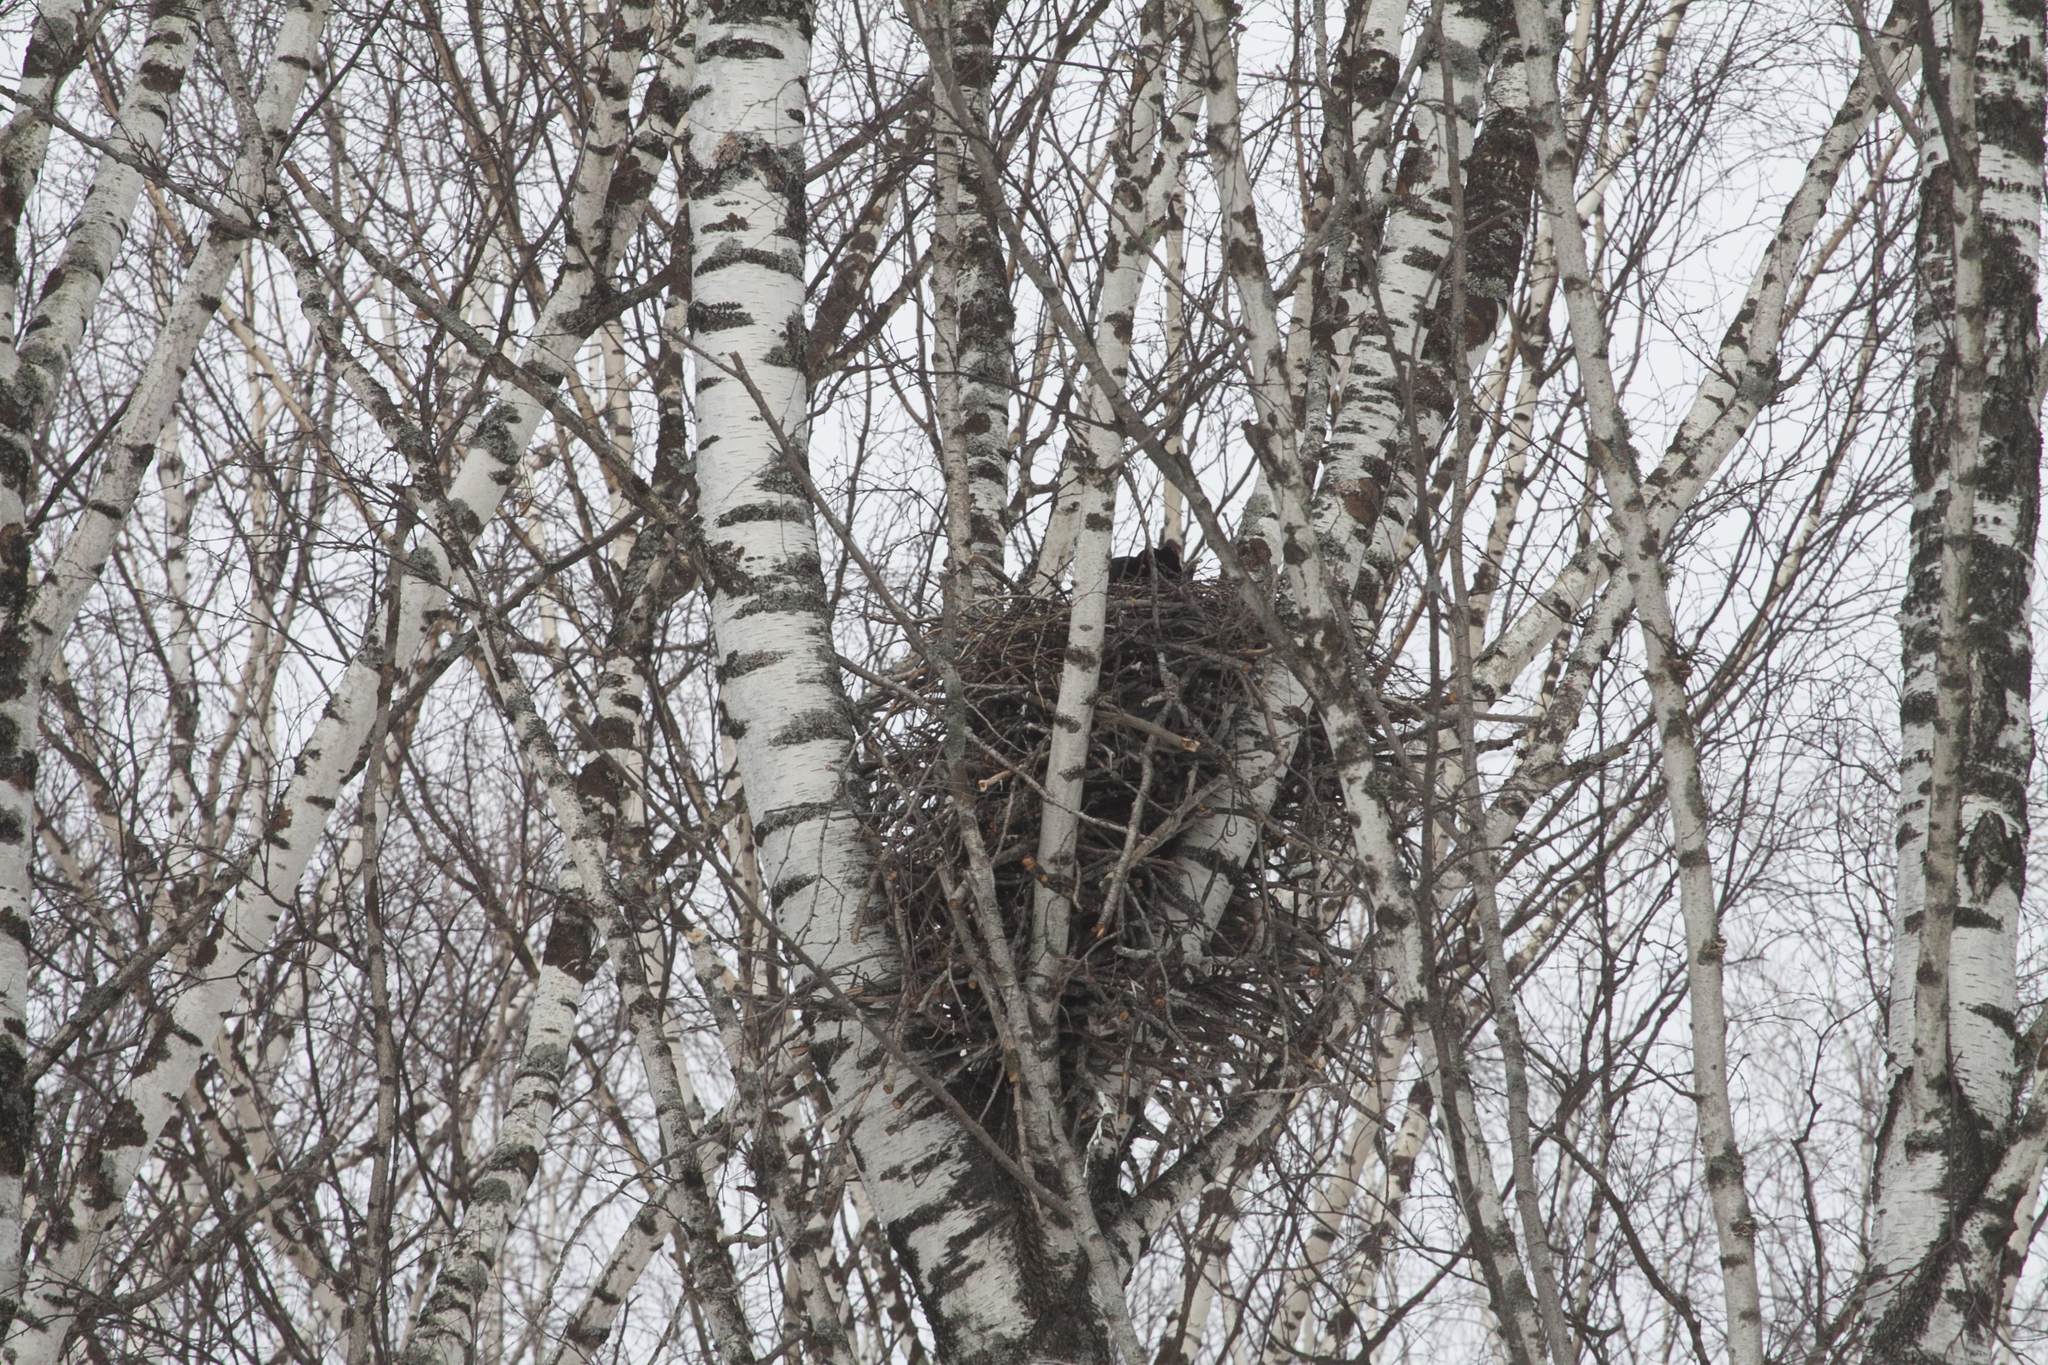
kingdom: Animalia
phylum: Chordata
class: Aves
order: Passeriformes
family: Corvidae
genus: Corvus
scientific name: Corvus corax
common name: Common raven
